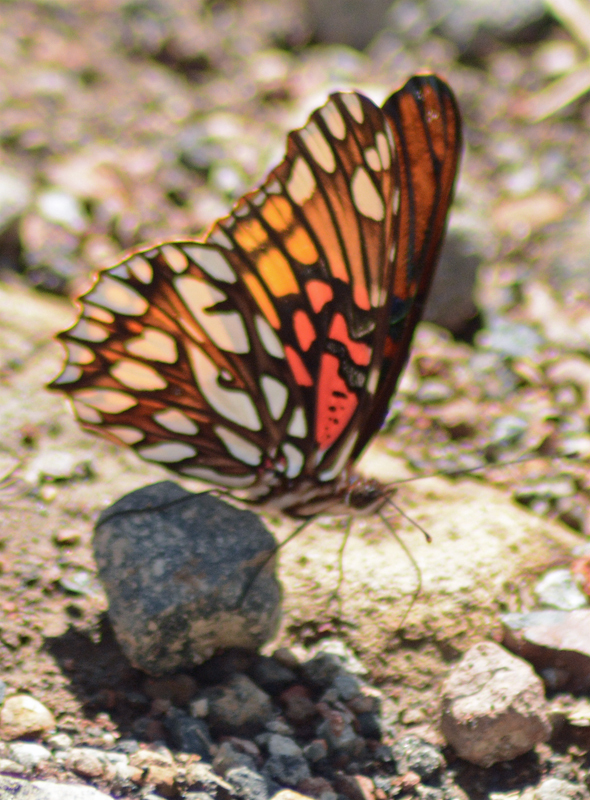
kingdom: Animalia
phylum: Arthropoda
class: Insecta
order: Lepidoptera
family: Nymphalidae
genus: Dione
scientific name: Dione moneta
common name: Mexican silverspot
